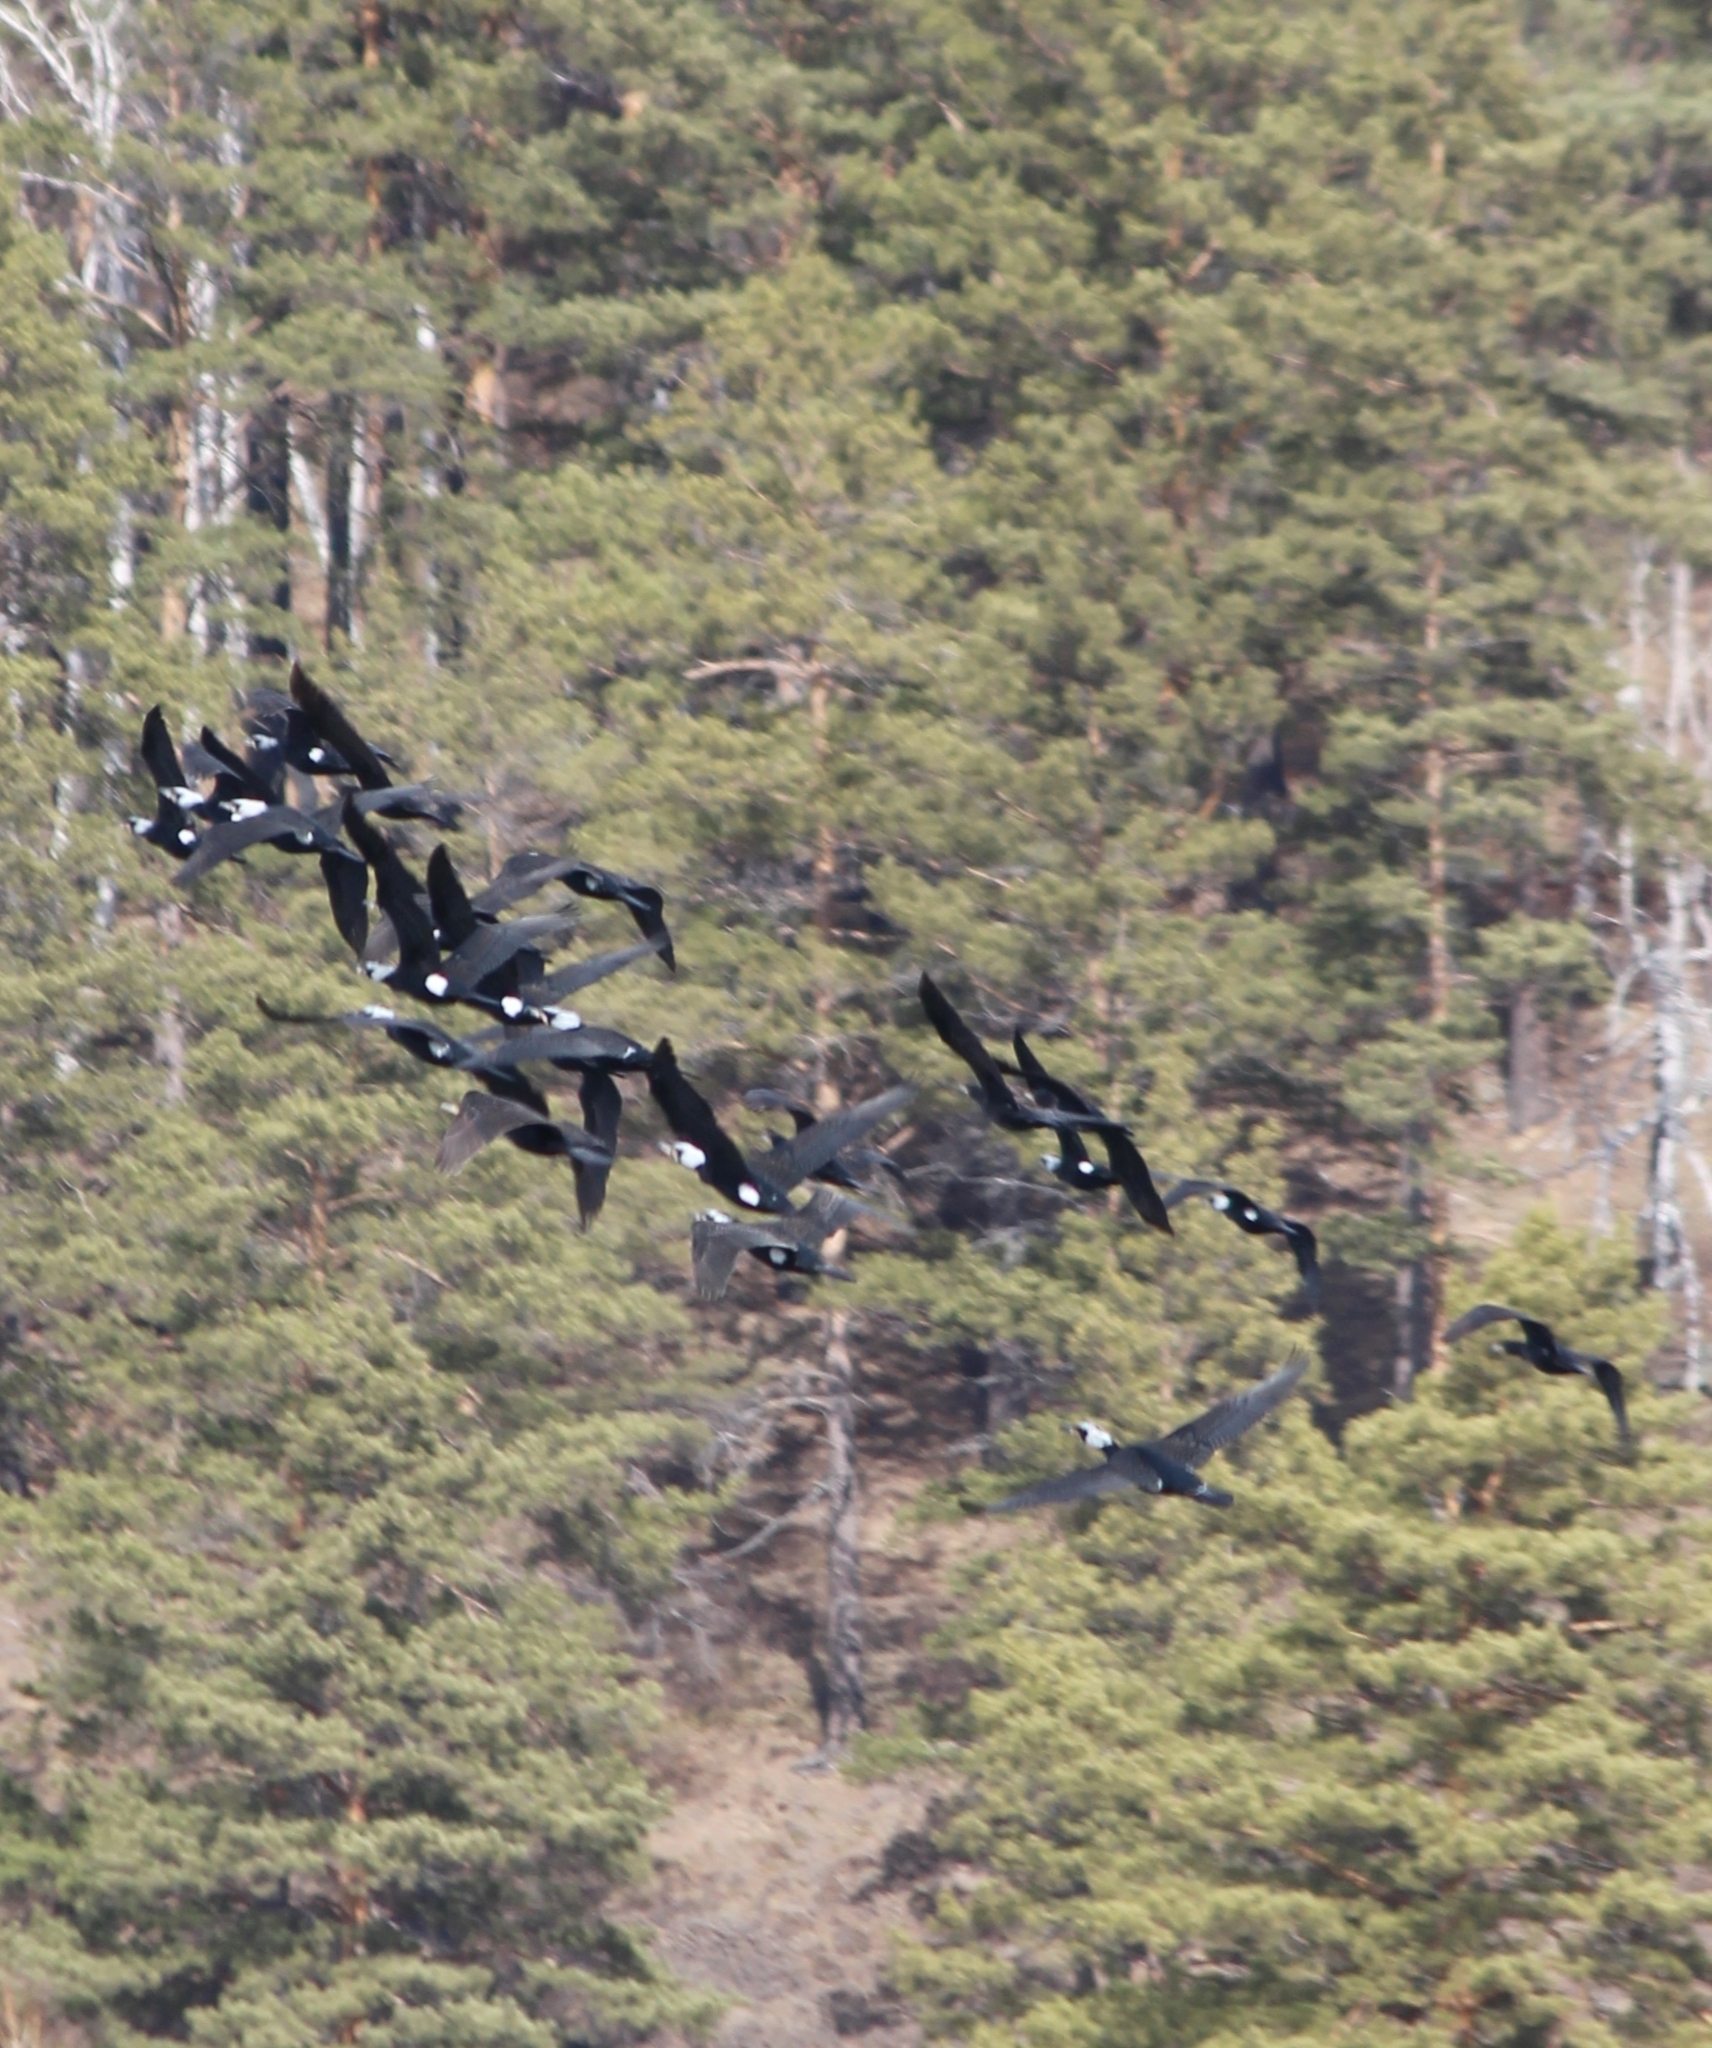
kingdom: Animalia
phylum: Chordata
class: Aves
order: Suliformes
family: Phalacrocoracidae
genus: Phalacrocorax
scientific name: Phalacrocorax carbo
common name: Great cormorant
